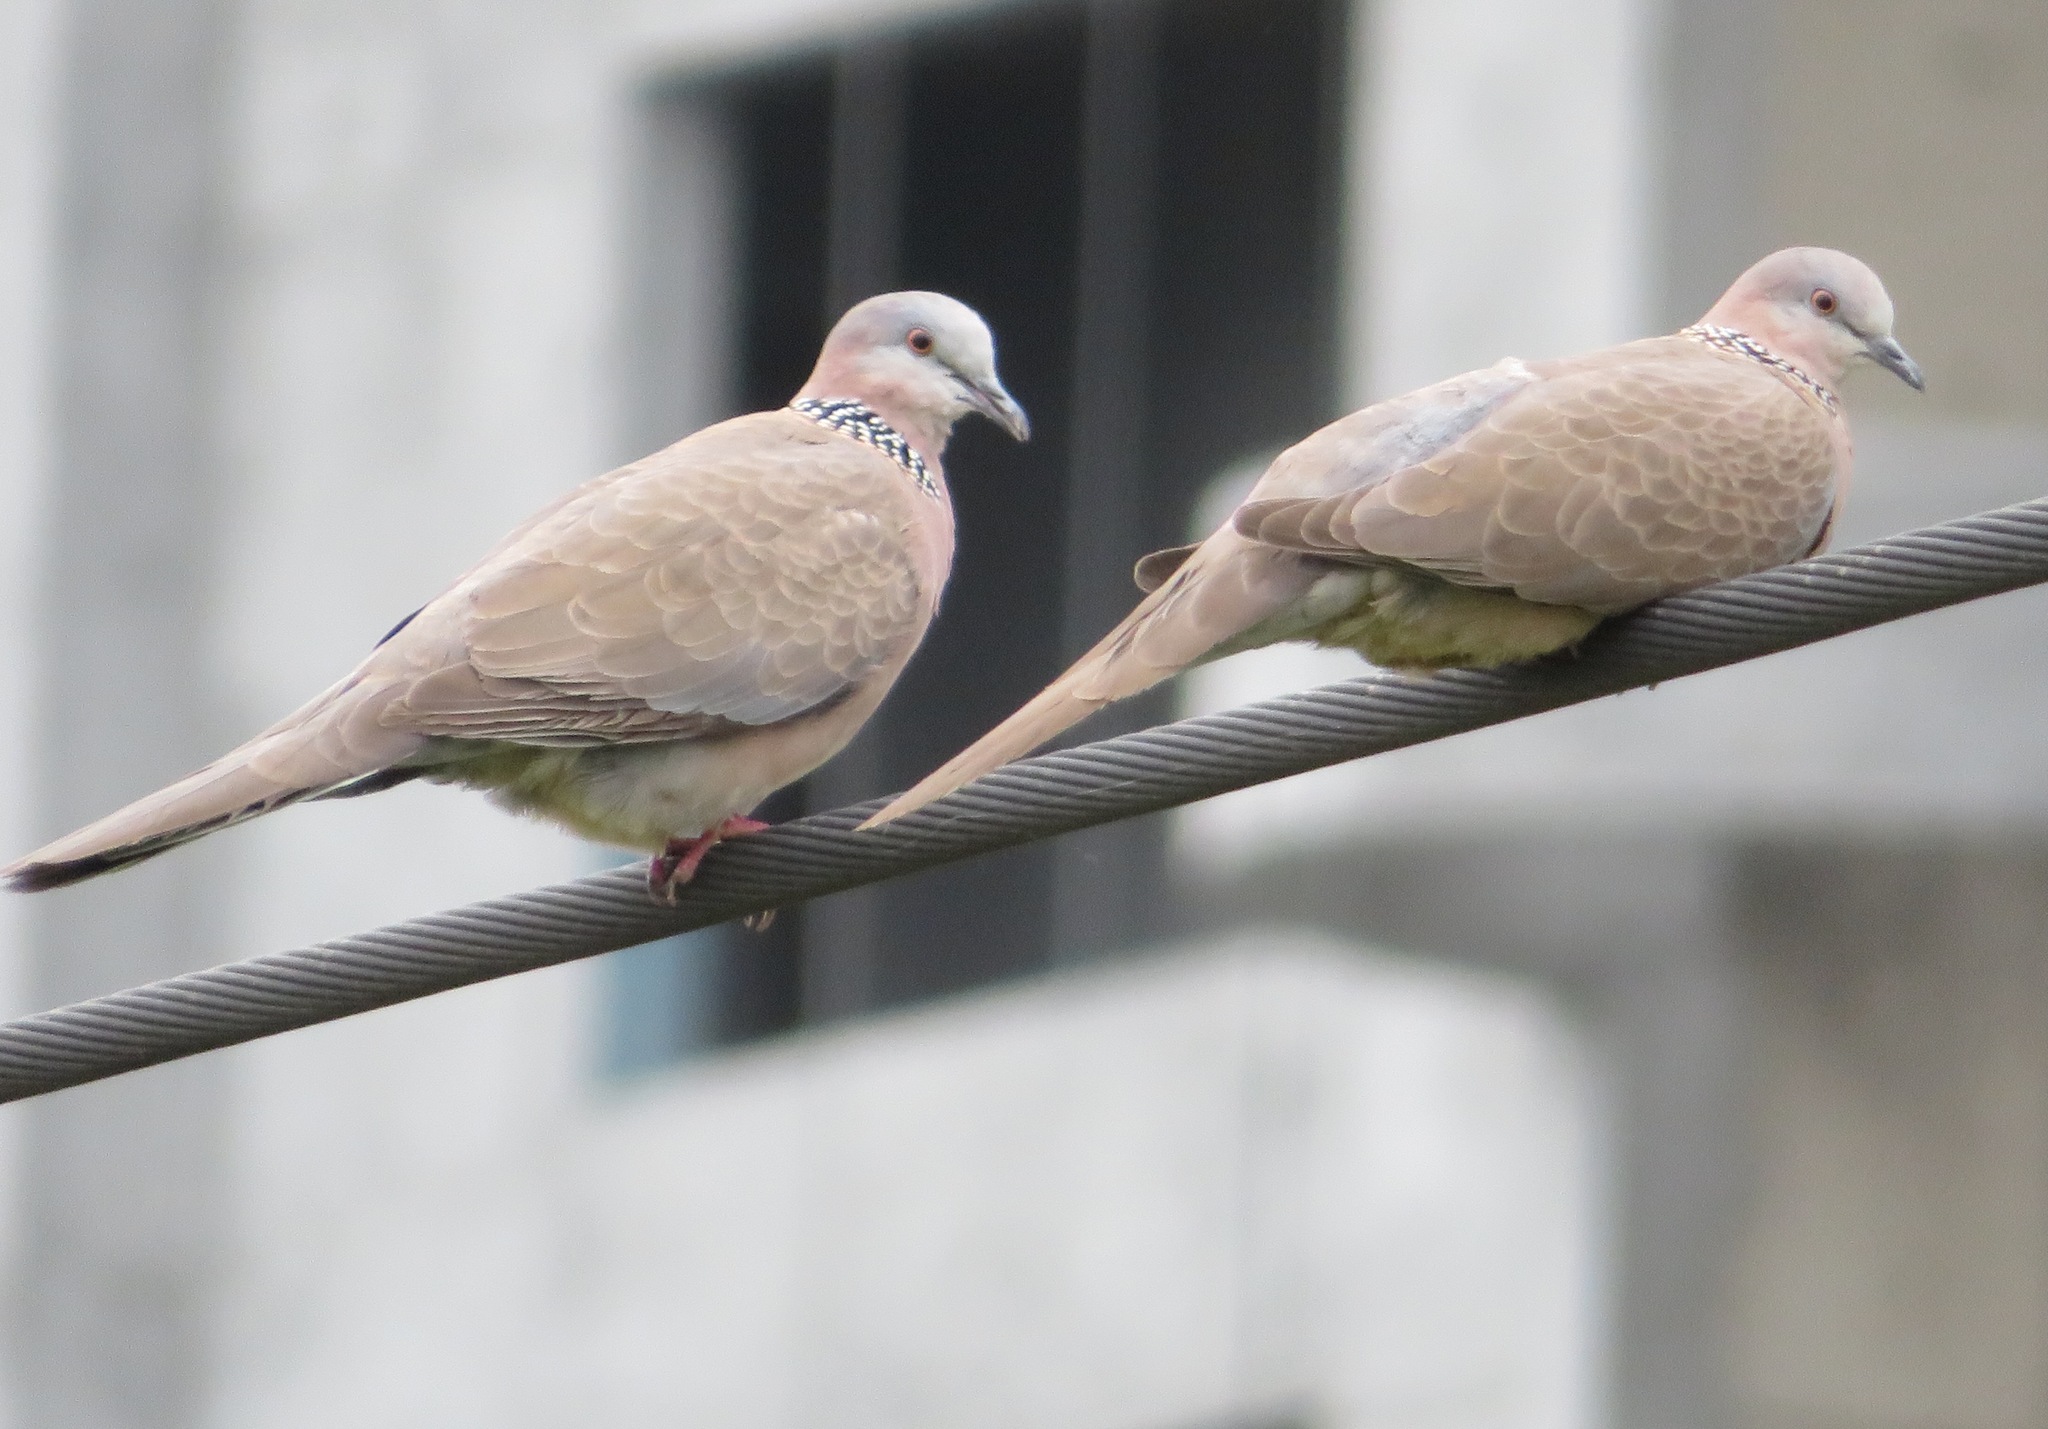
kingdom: Animalia
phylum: Chordata
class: Aves
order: Columbiformes
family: Columbidae
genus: Spilopelia
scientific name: Spilopelia chinensis
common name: Spotted dove
